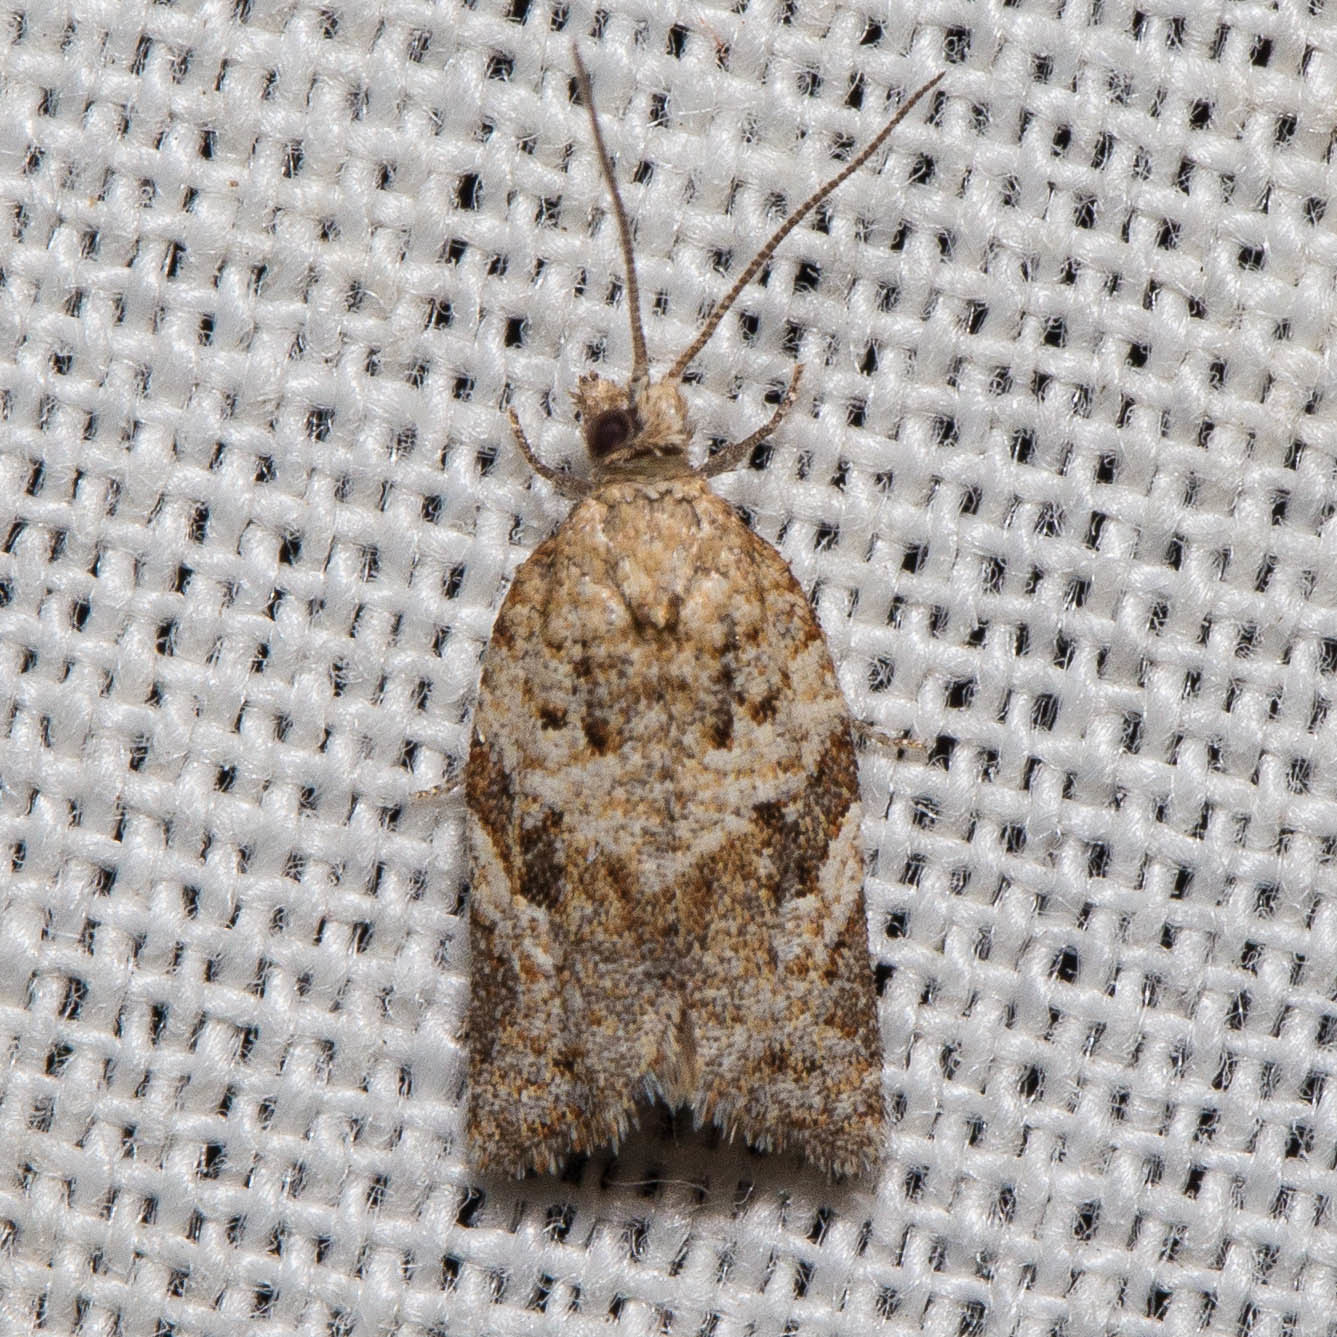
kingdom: Animalia
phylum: Arthropoda
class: Insecta
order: Lepidoptera
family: Tortricidae
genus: Argyrotaenia
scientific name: Argyrotaenia isolatissima
